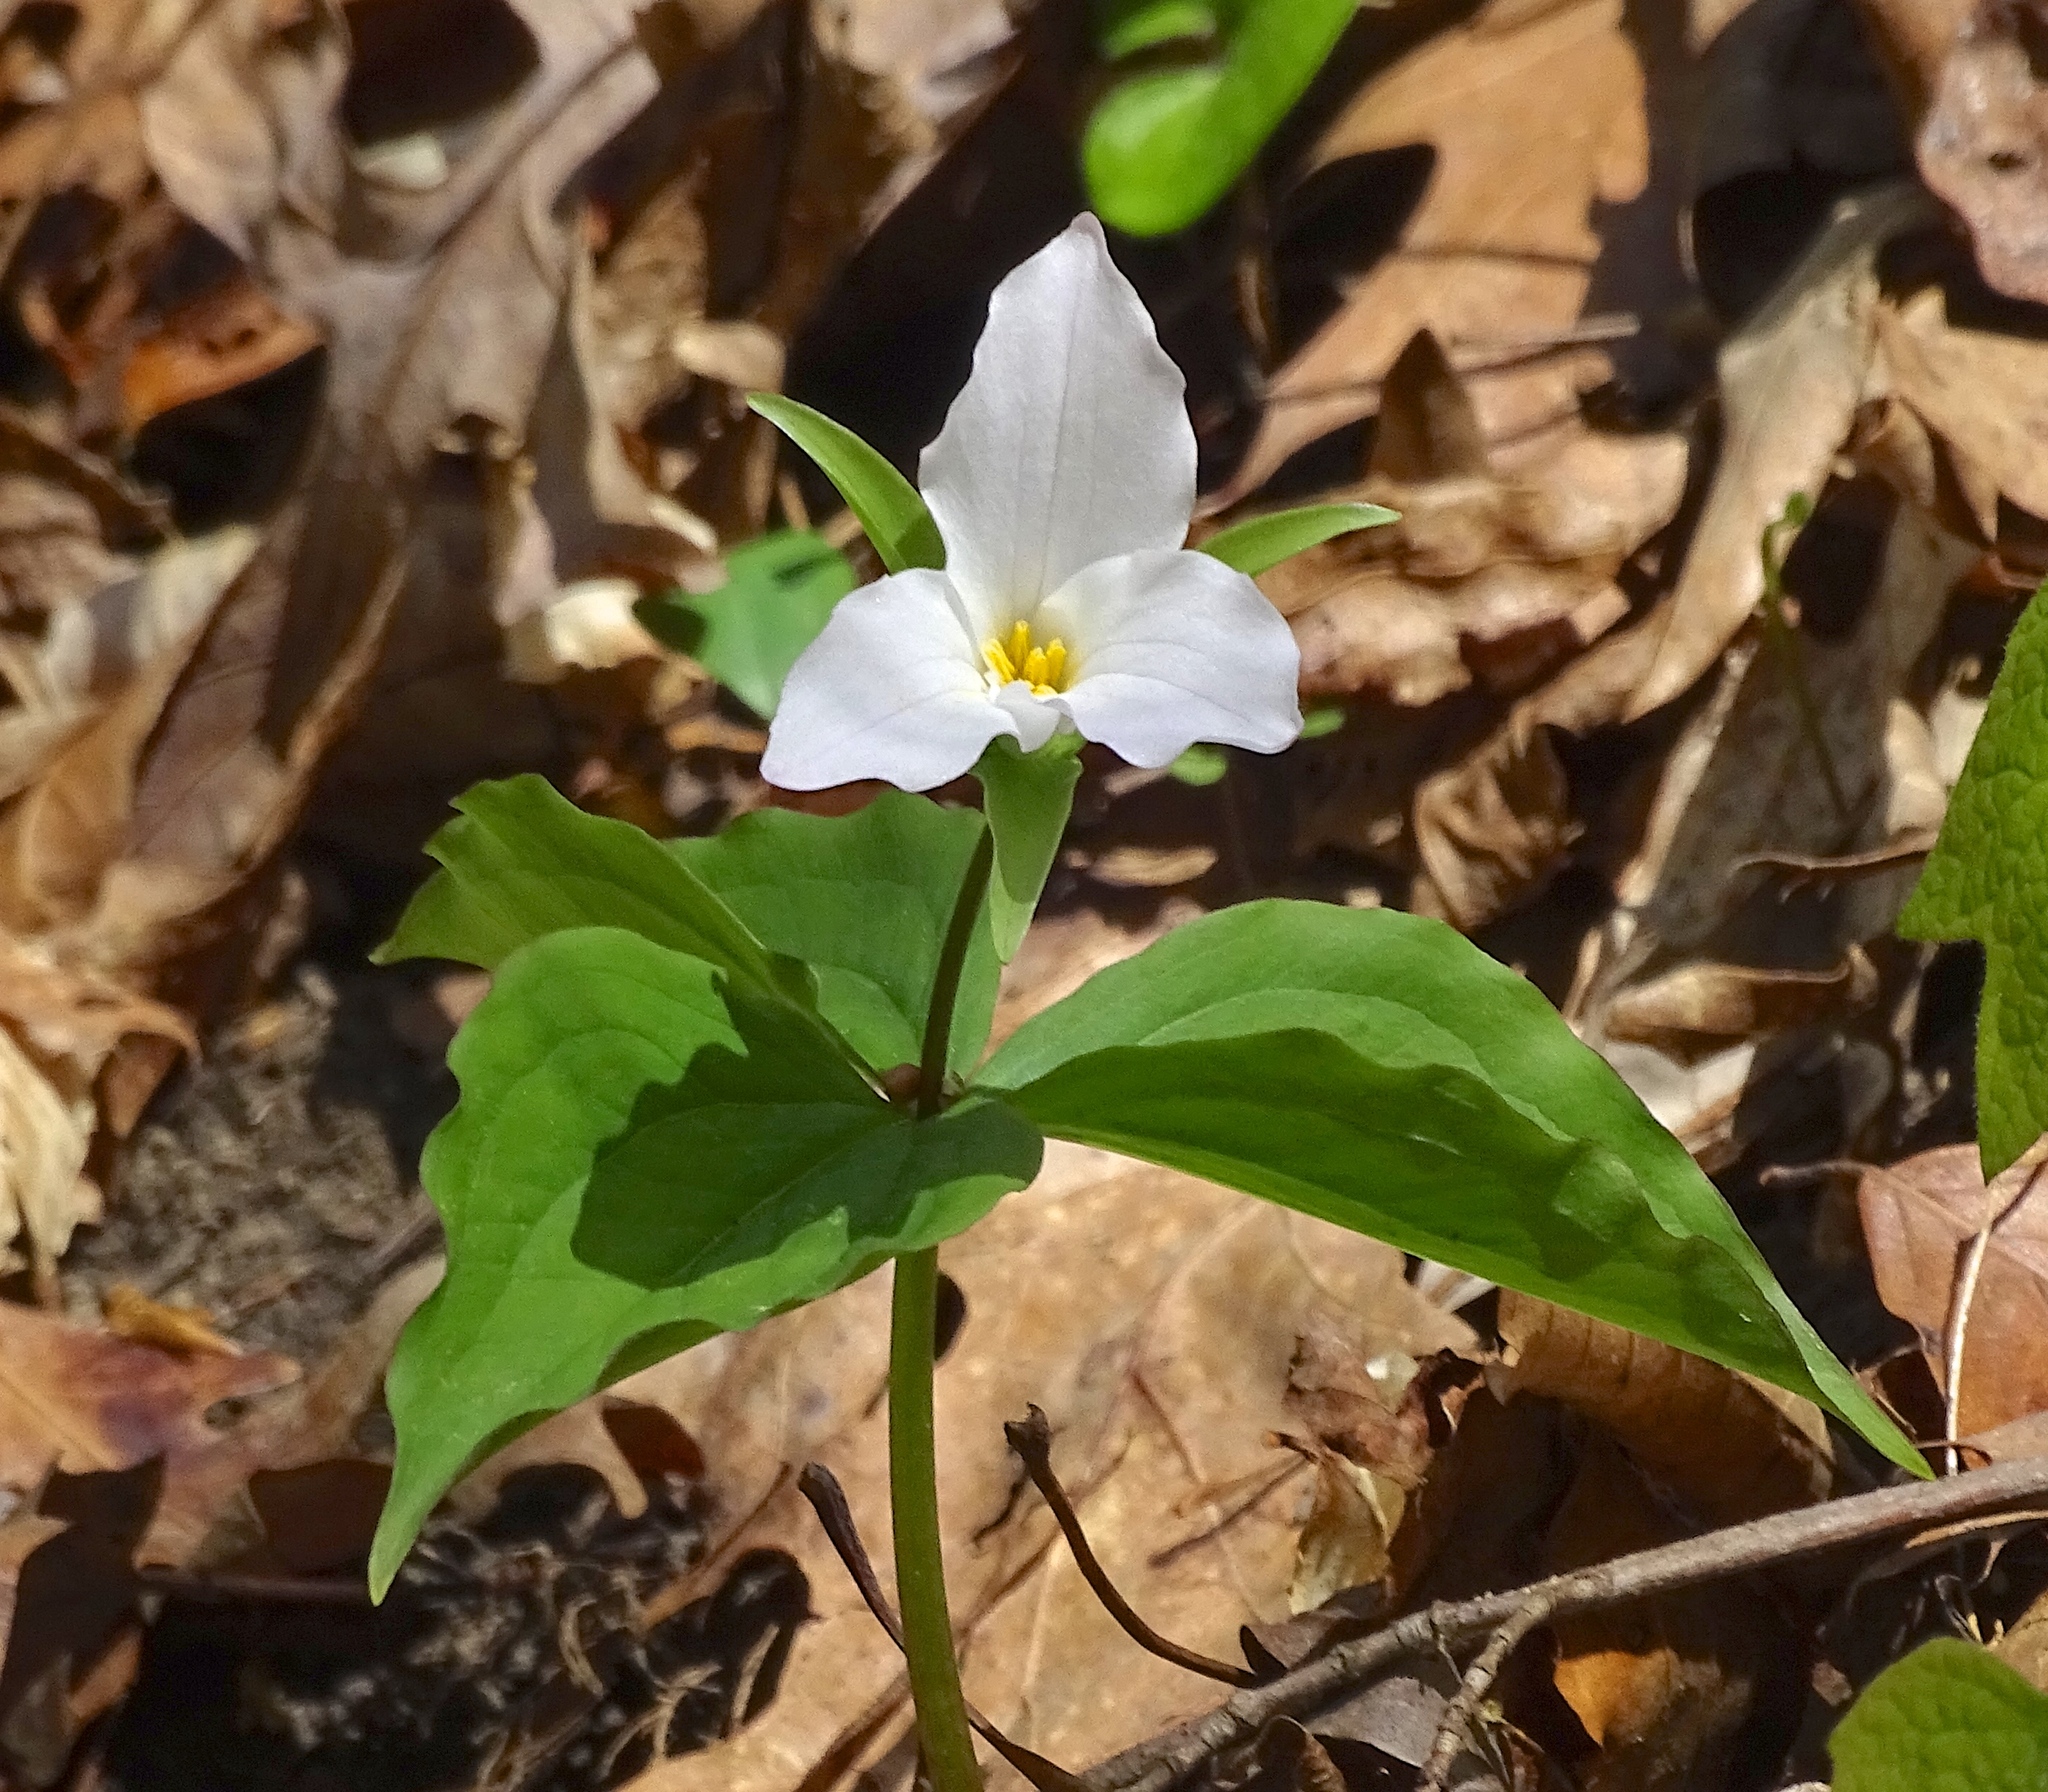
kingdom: Plantae
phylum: Tracheophyta
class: Liliopsida
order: Liliales
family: Melanthiaceae
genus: Trillium
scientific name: Trillium grandiflorum
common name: Great white trillium
